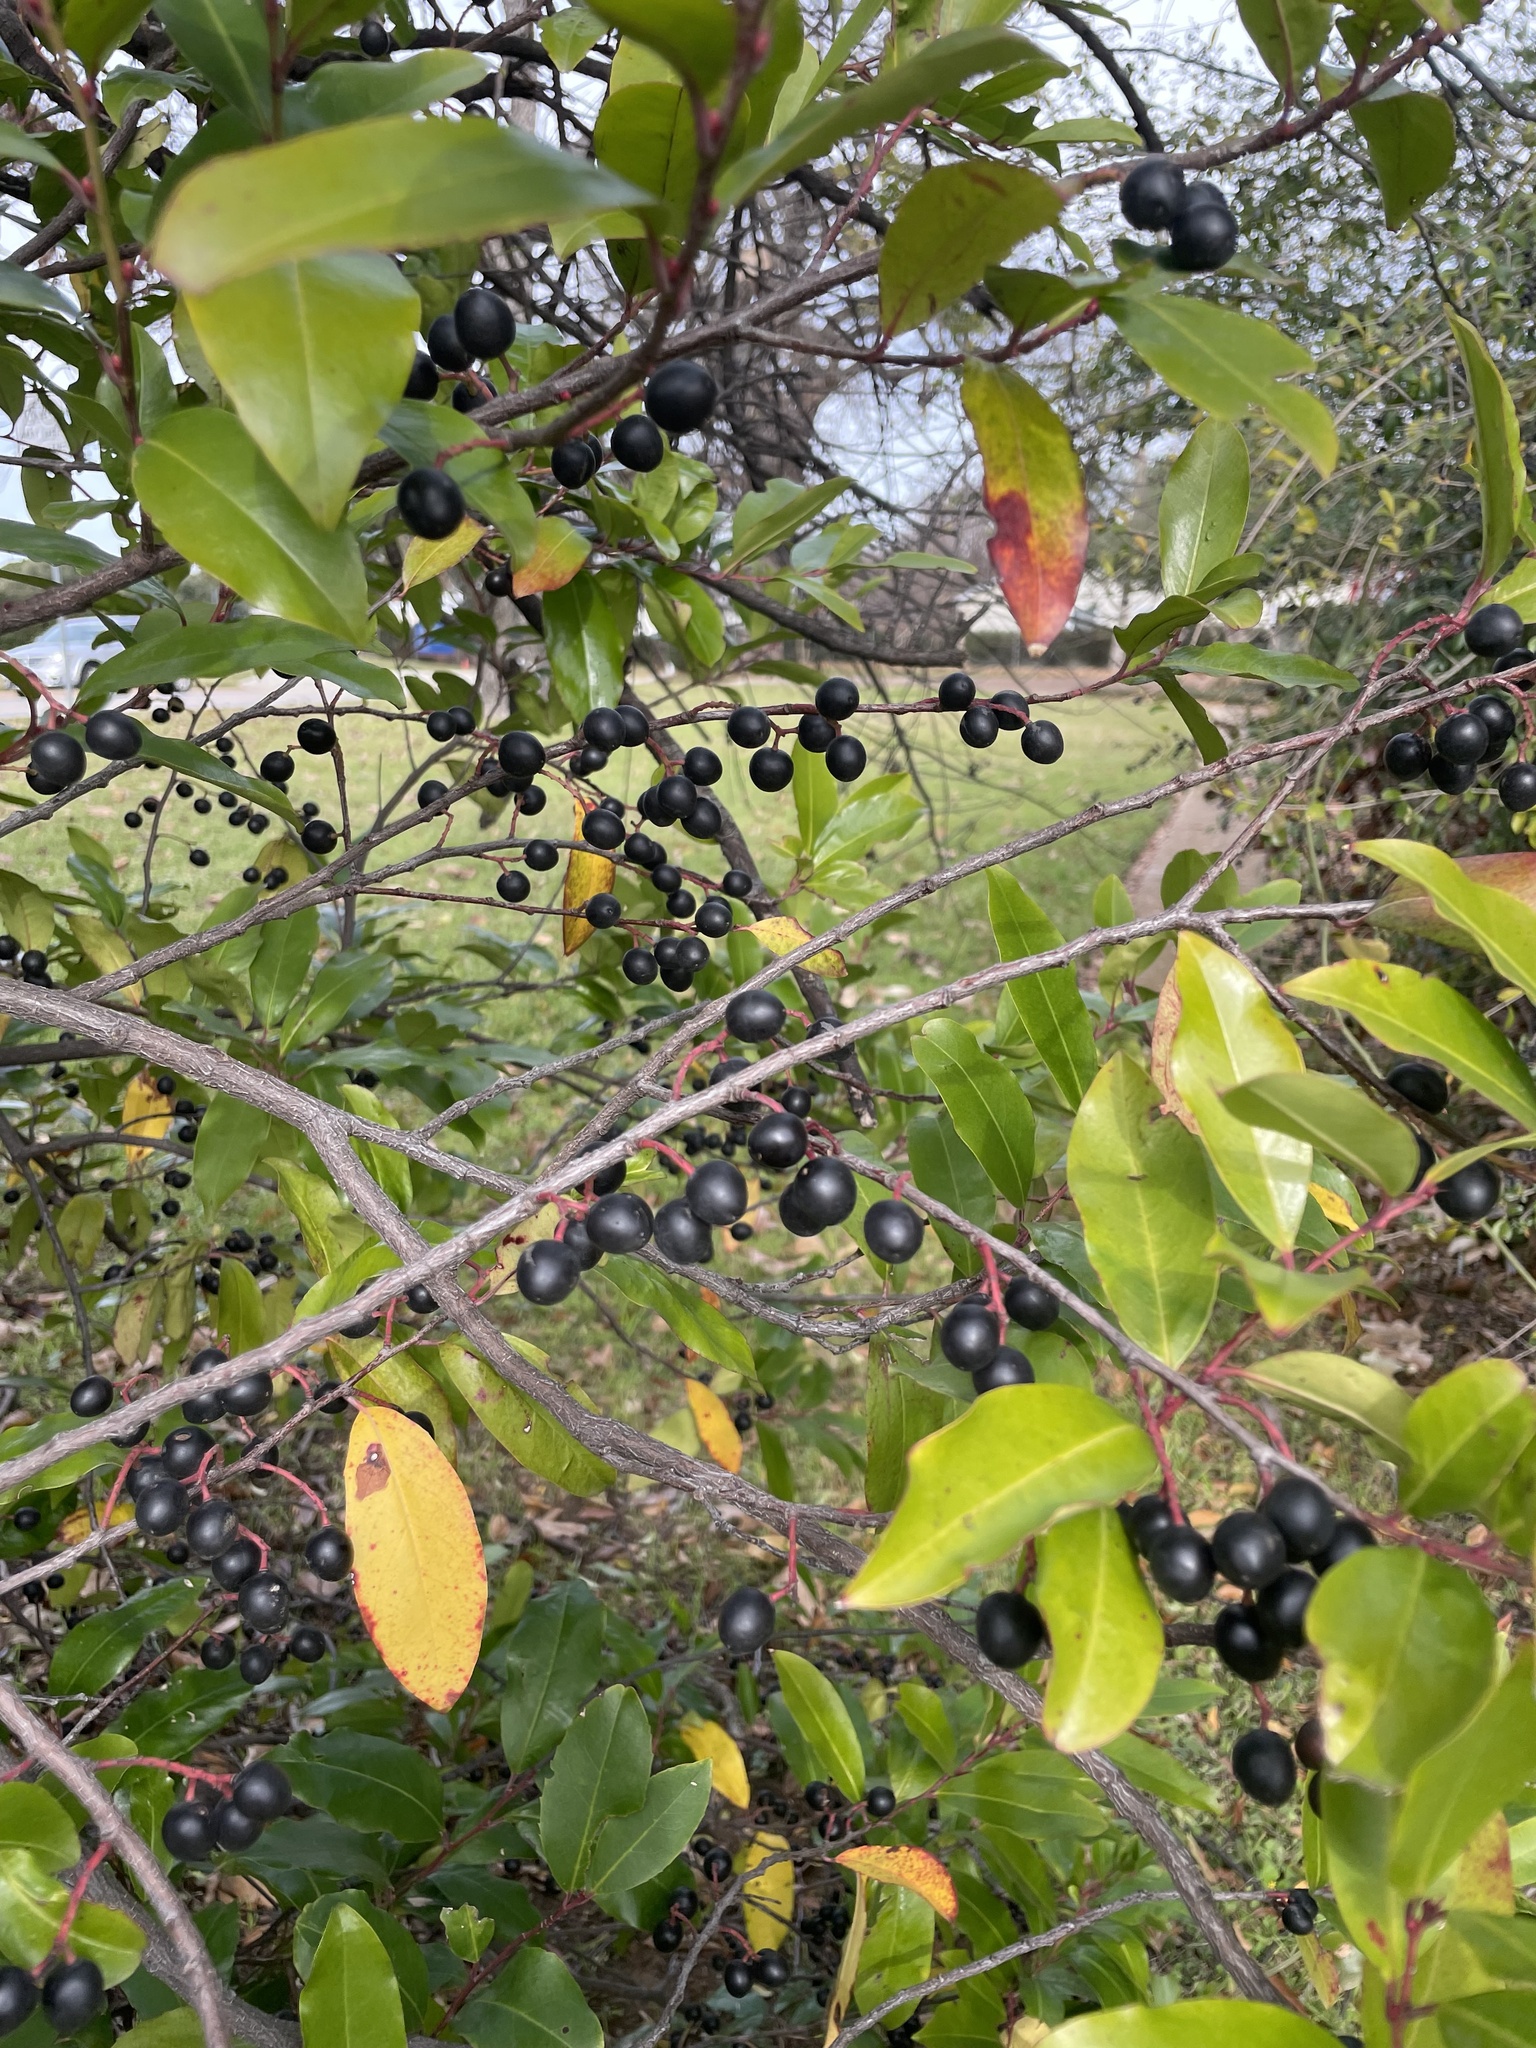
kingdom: Plantae
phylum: Tracheophyta
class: Magnoliopsida
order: Rosales
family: Rosaceae
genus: Prunus
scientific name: Prunus caroliniana
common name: Carolina laurel cherry
